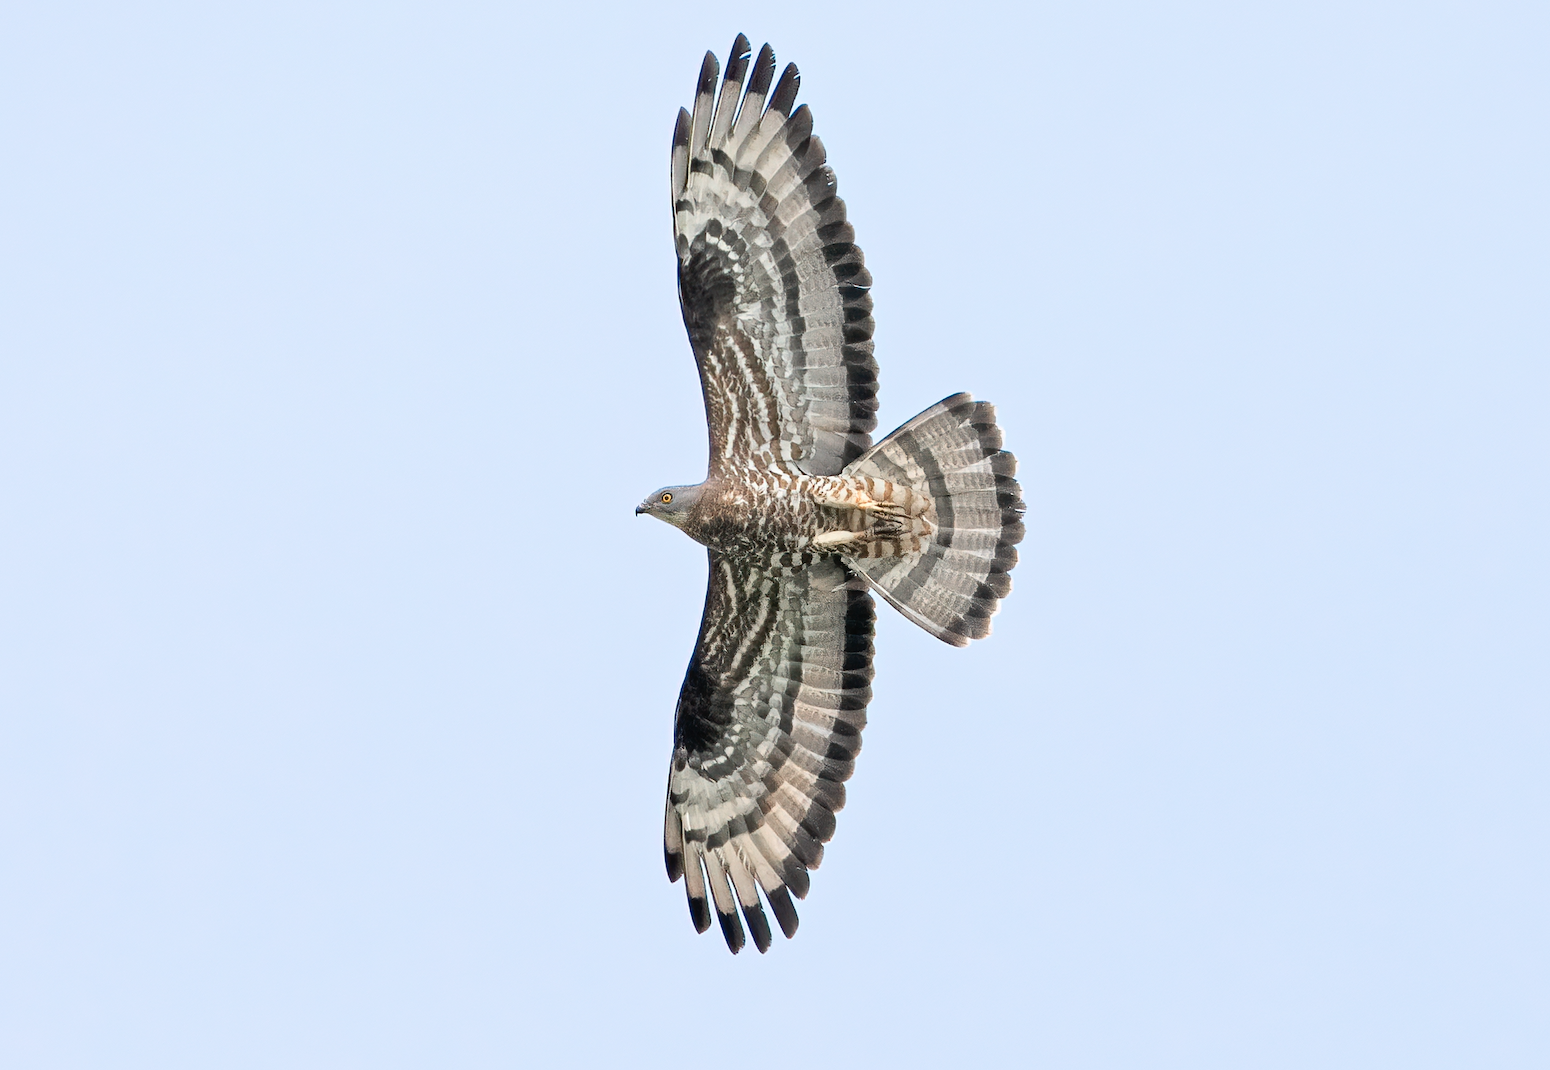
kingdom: Animalia
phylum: Chordata
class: Aves
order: Accipitriformes
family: Accipitridae
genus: Pernis
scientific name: Pernis apivorus
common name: European honey buzzard
